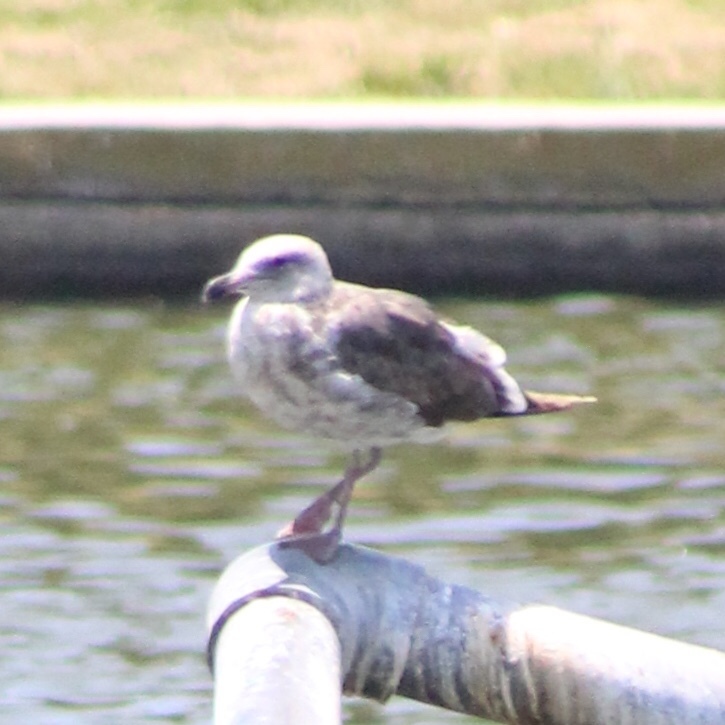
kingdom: Animalia
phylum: Chordata
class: Aves
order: Charadriiformes
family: Laridae
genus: Larus
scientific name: Larus occidentalis
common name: Western gull
